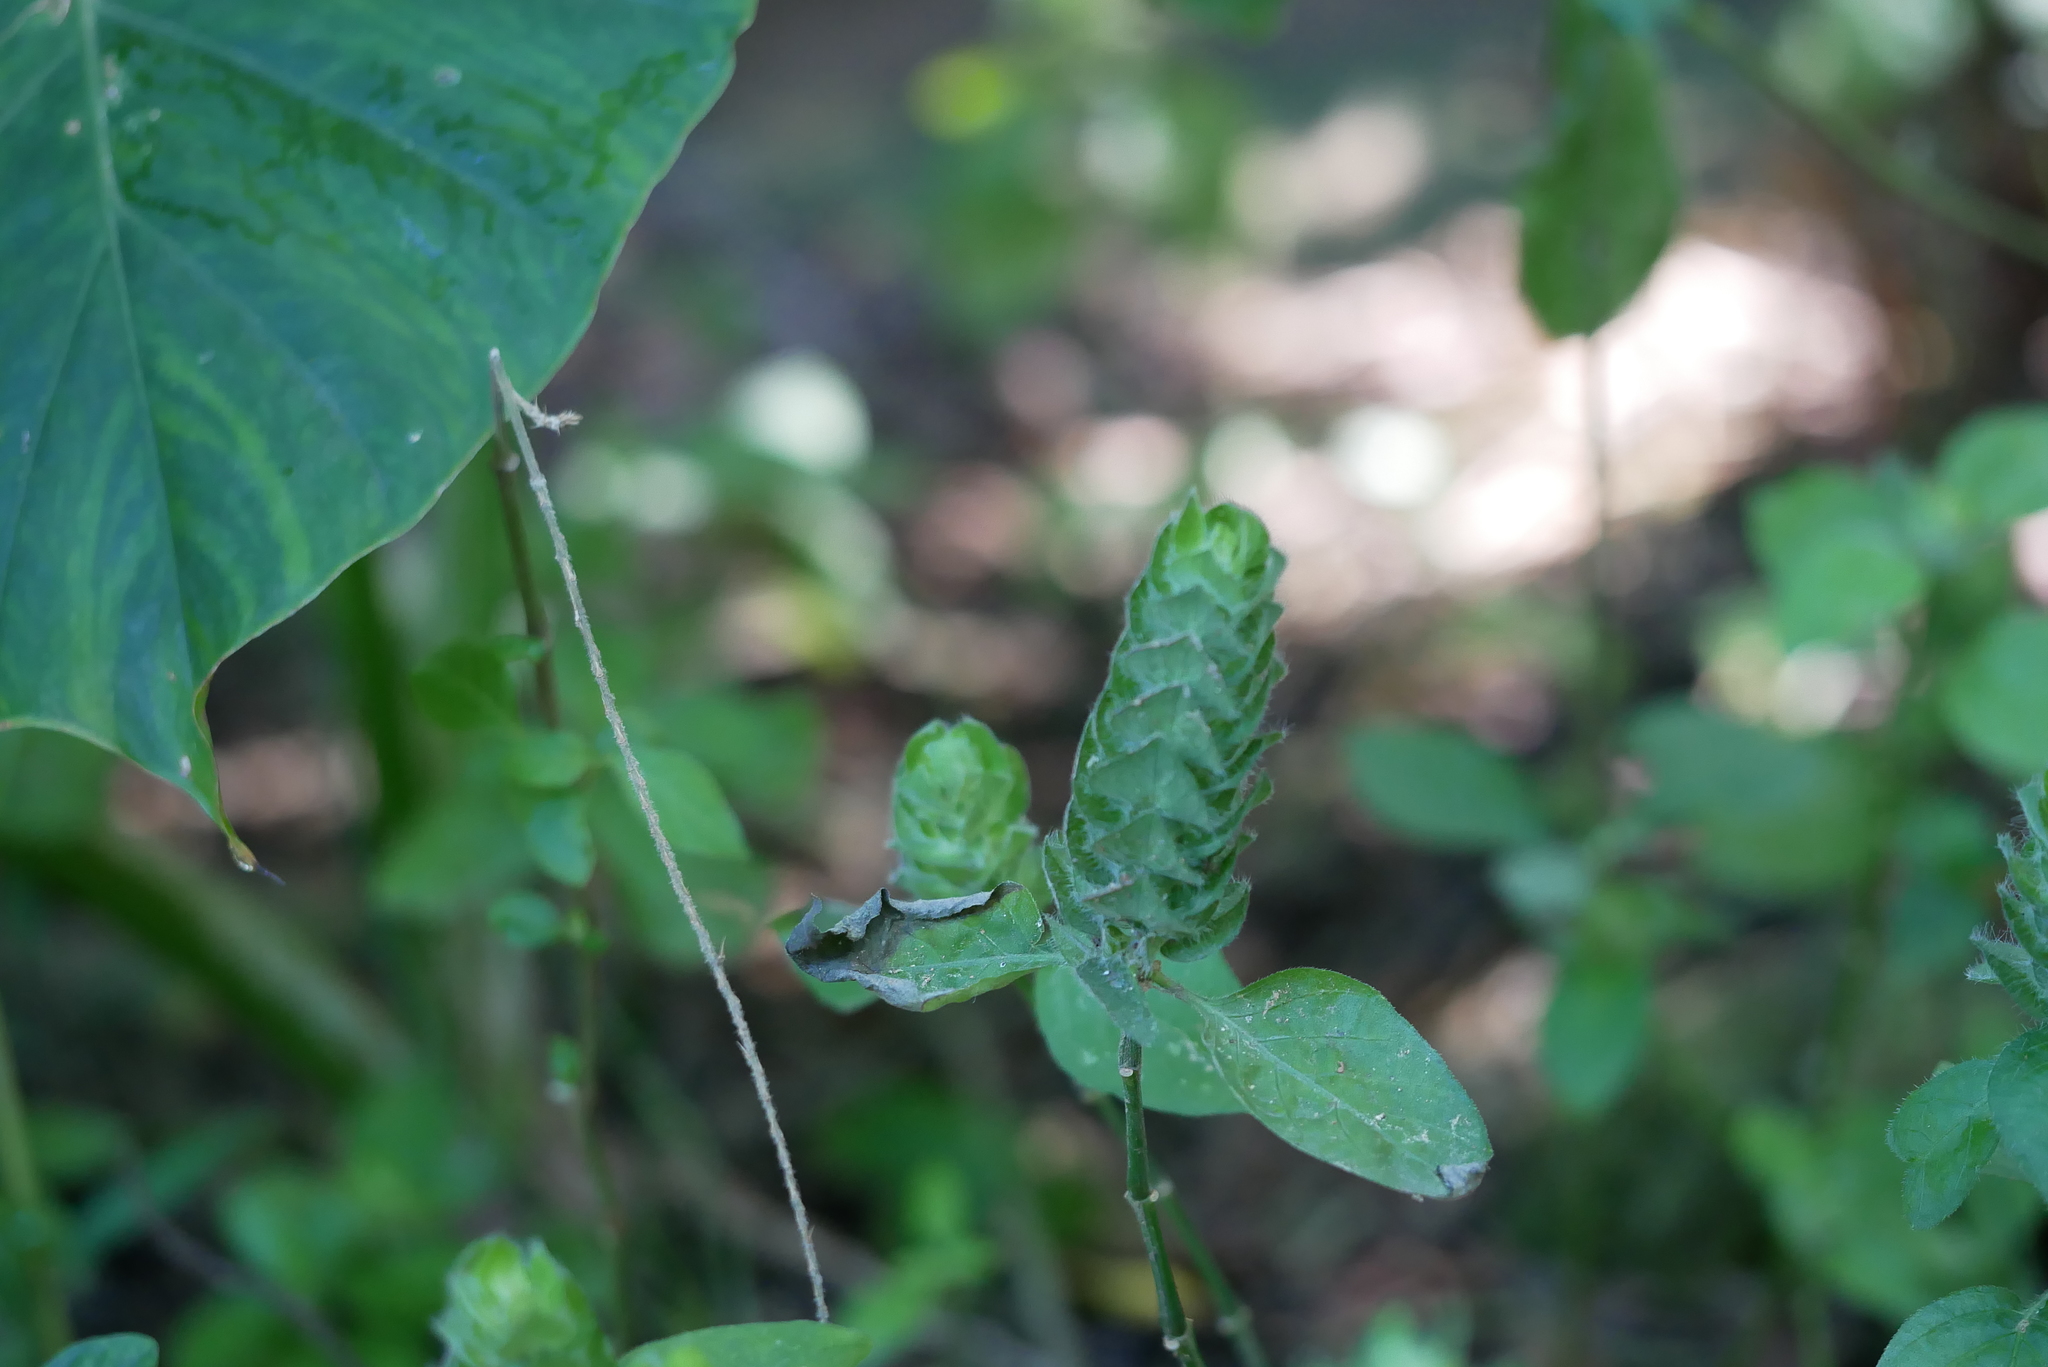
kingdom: Plantae
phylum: Tracheophyta
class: Magnoliopsida
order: Lamiales
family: Acanthaceae
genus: Ruellia
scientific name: Ruellia blechum
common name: Browne's blechum
